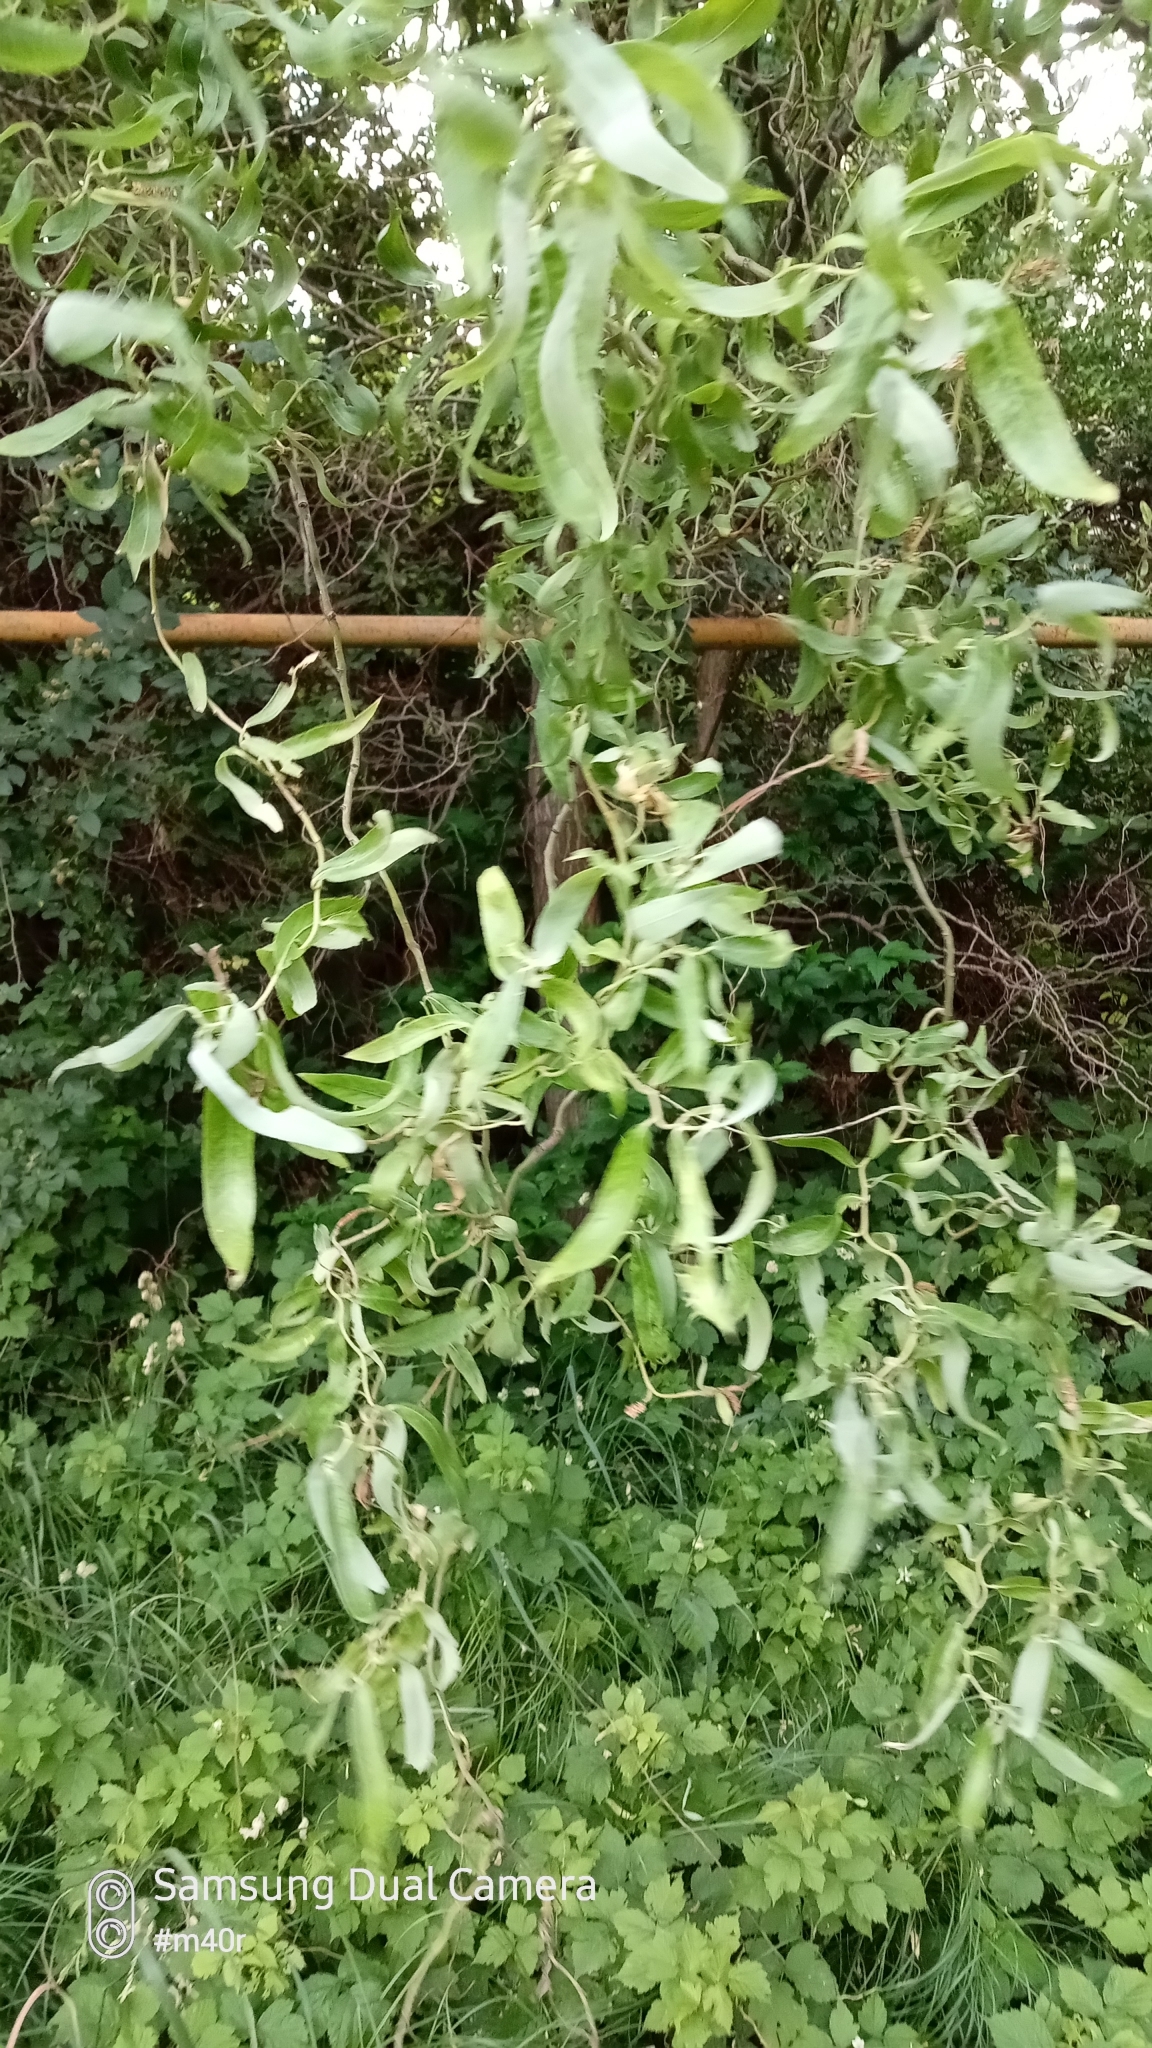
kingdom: Plantae
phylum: Tracheophyta
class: Magnoliopsida
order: Malpighiales
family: Salicaceae
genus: Salix
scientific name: Salix
